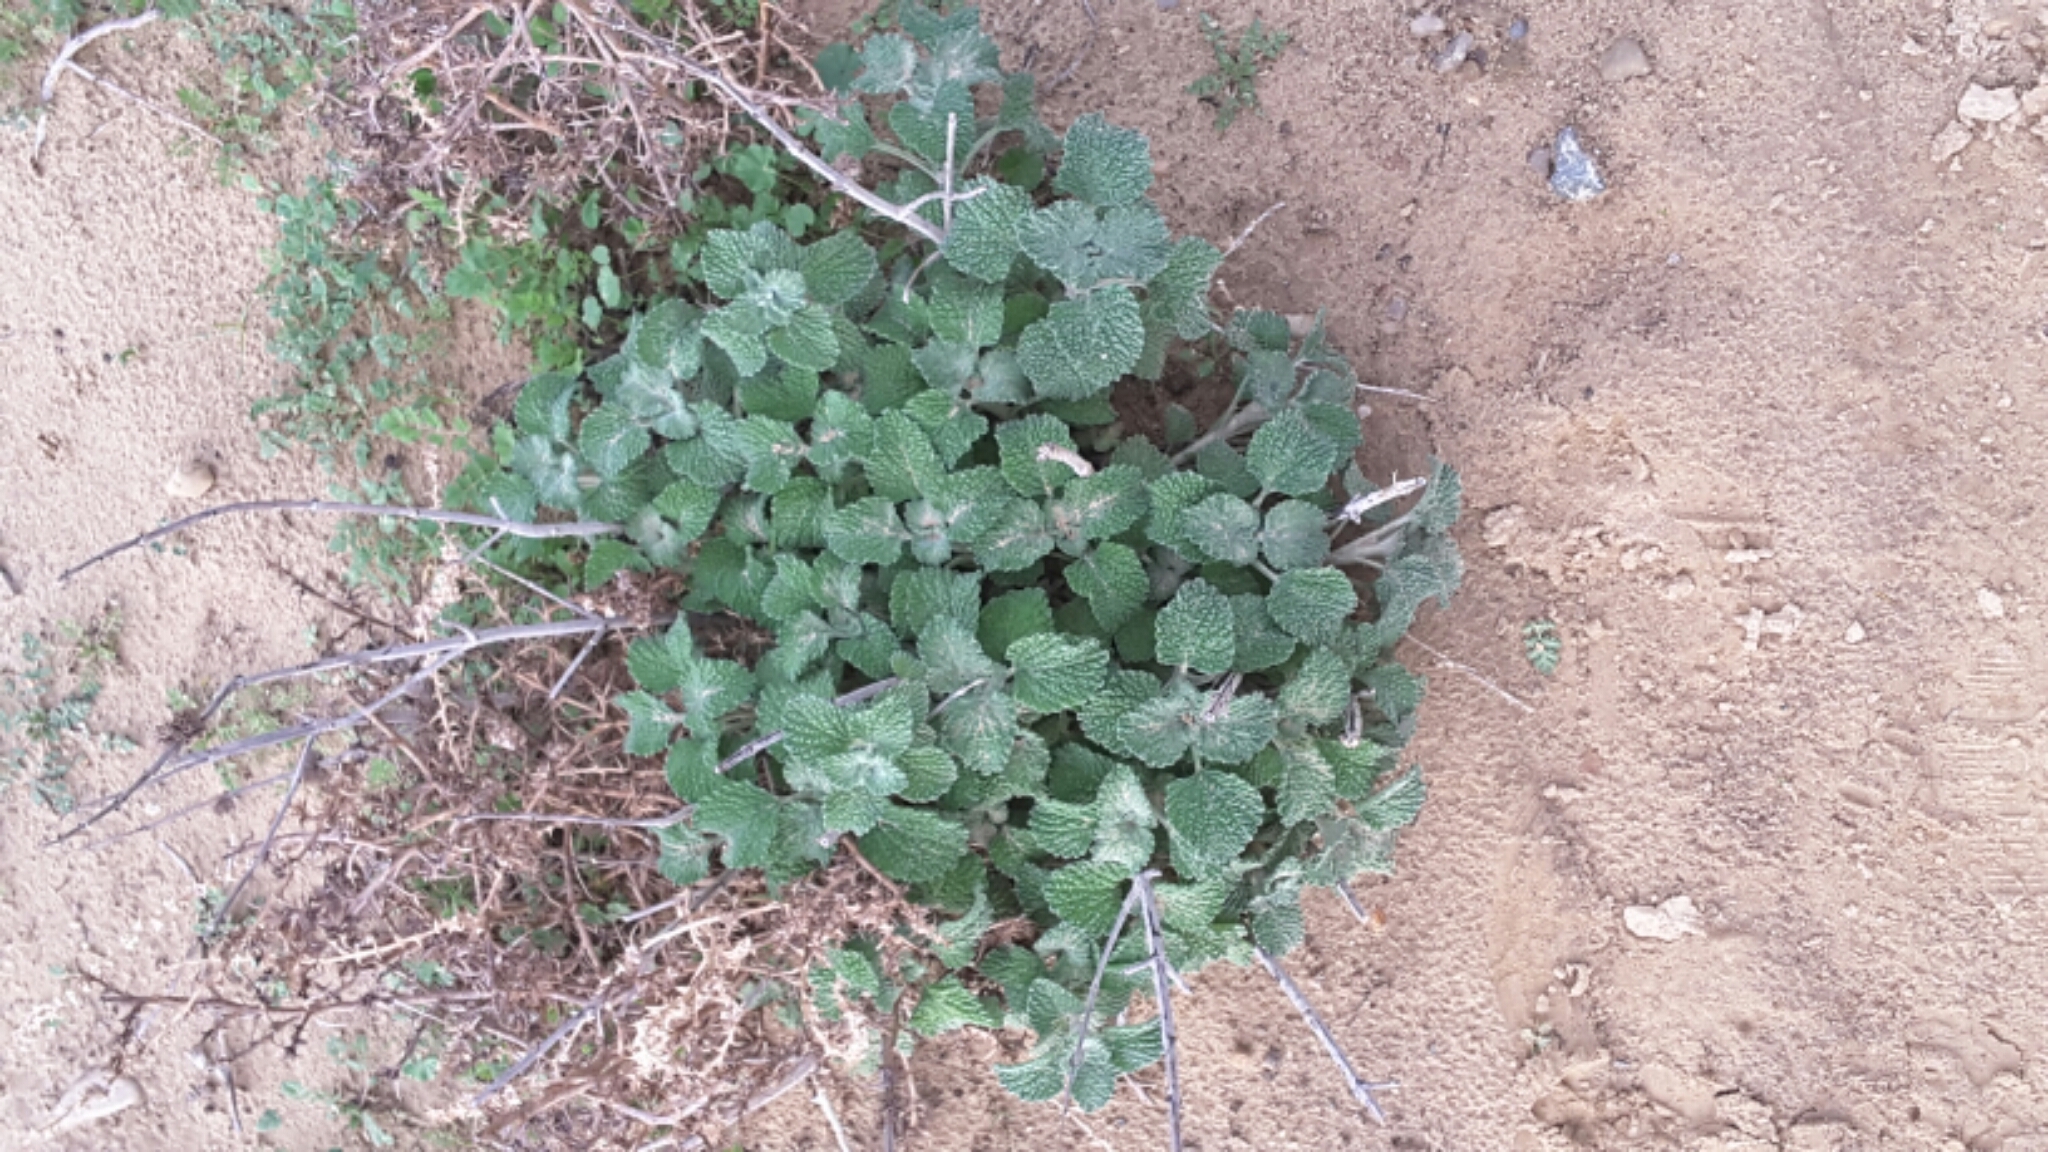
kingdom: Plantae
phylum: Tracheophyta
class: Magnoliopsida
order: Lamiales
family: Lamiaceae
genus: Marrubium
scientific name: Marrubium vulgare
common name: Horehound
